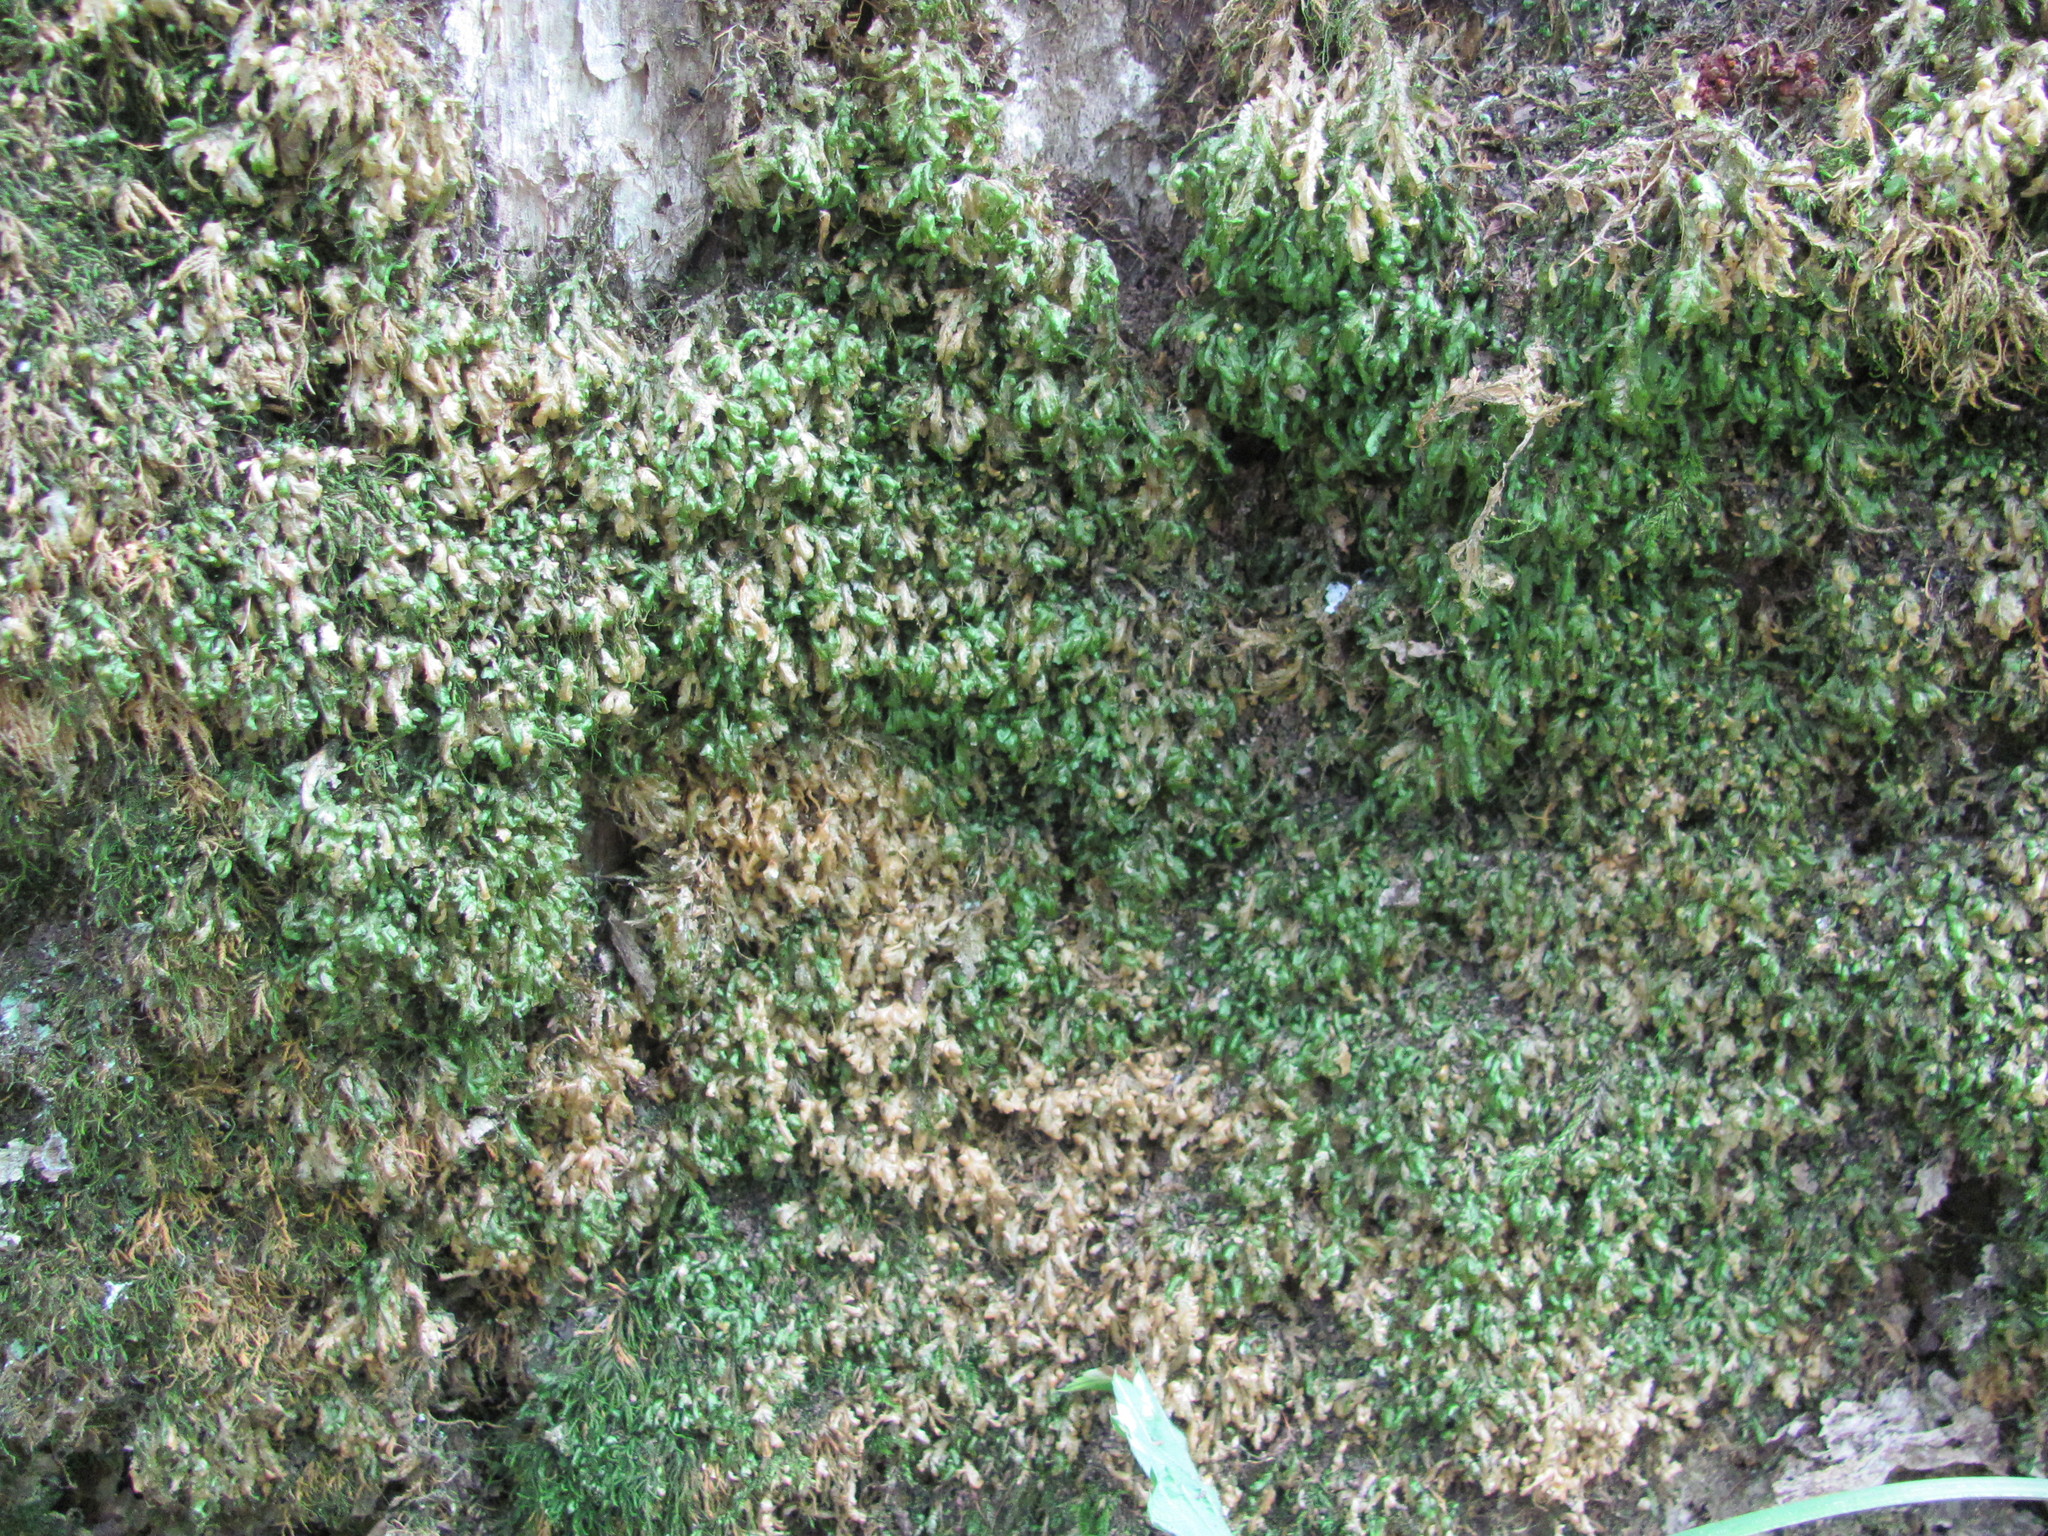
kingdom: Plantae
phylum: Bryophyta
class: Bryopsida
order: Hypnales
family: Neckeraceae
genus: Homalia
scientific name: Homalia trichomanoides
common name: Lime homalia moss
